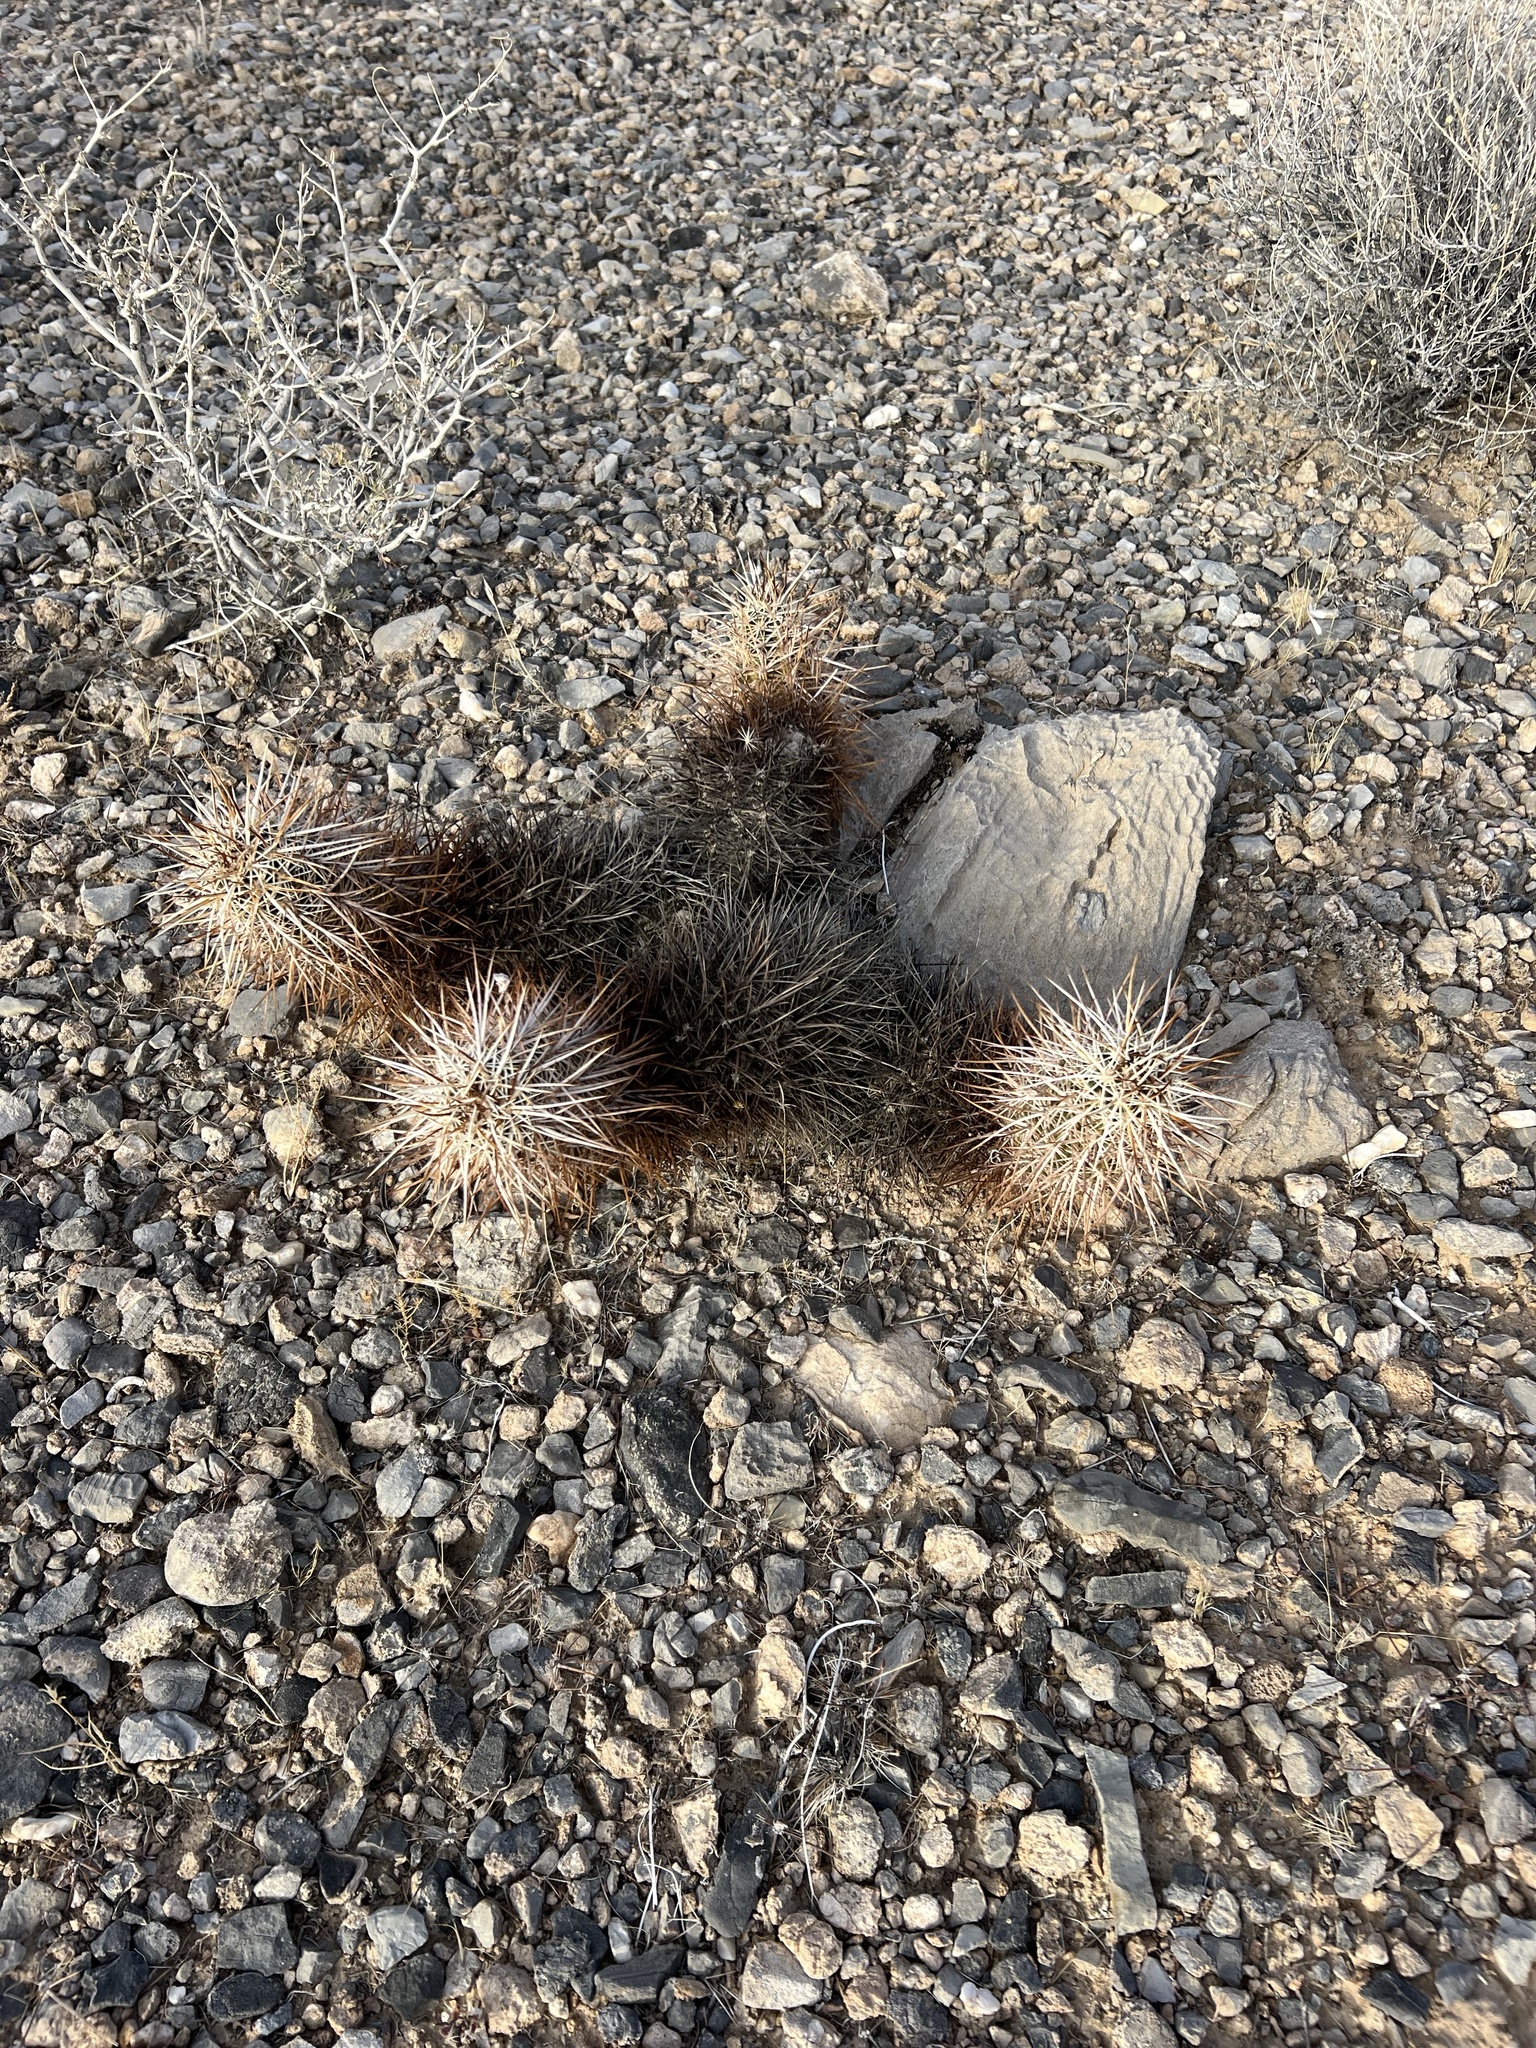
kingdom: Plantae
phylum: Tracheophyta
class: Magnoliopsida
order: Caryophyllales
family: Cactaceae
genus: Echinocereus
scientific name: Echinocereus engelmannii
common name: Engelmann's hedgehog cactus
